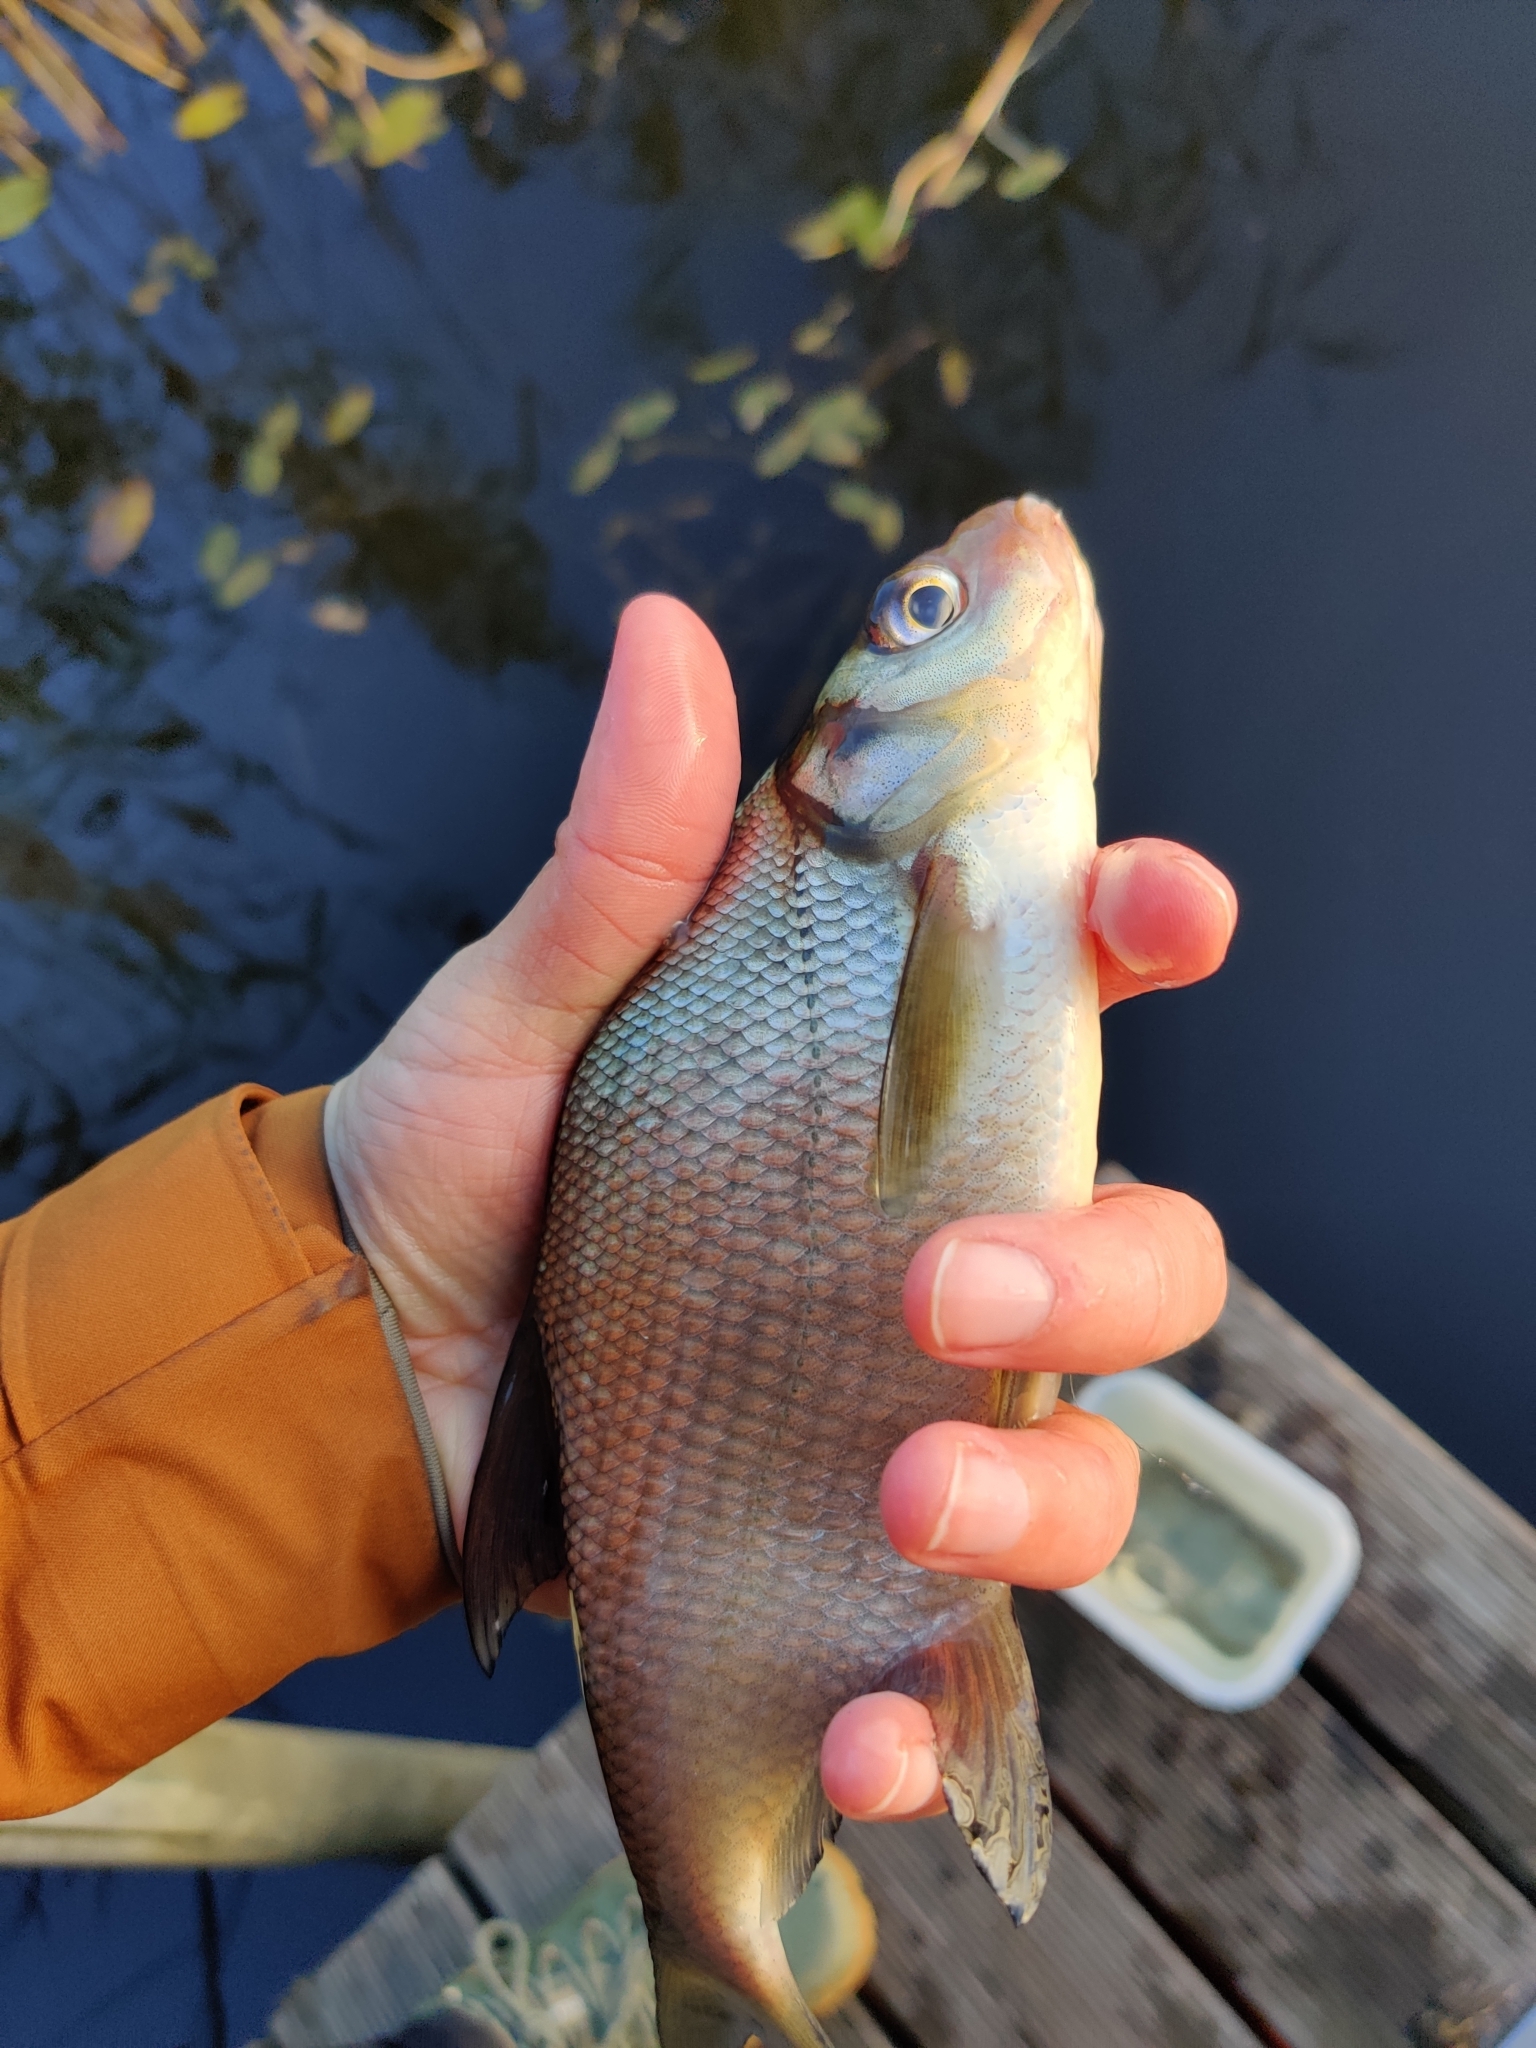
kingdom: Animalia
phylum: Chordata
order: Cypriniformes
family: Cyprinidae
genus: Abramis
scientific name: Abramis brama
